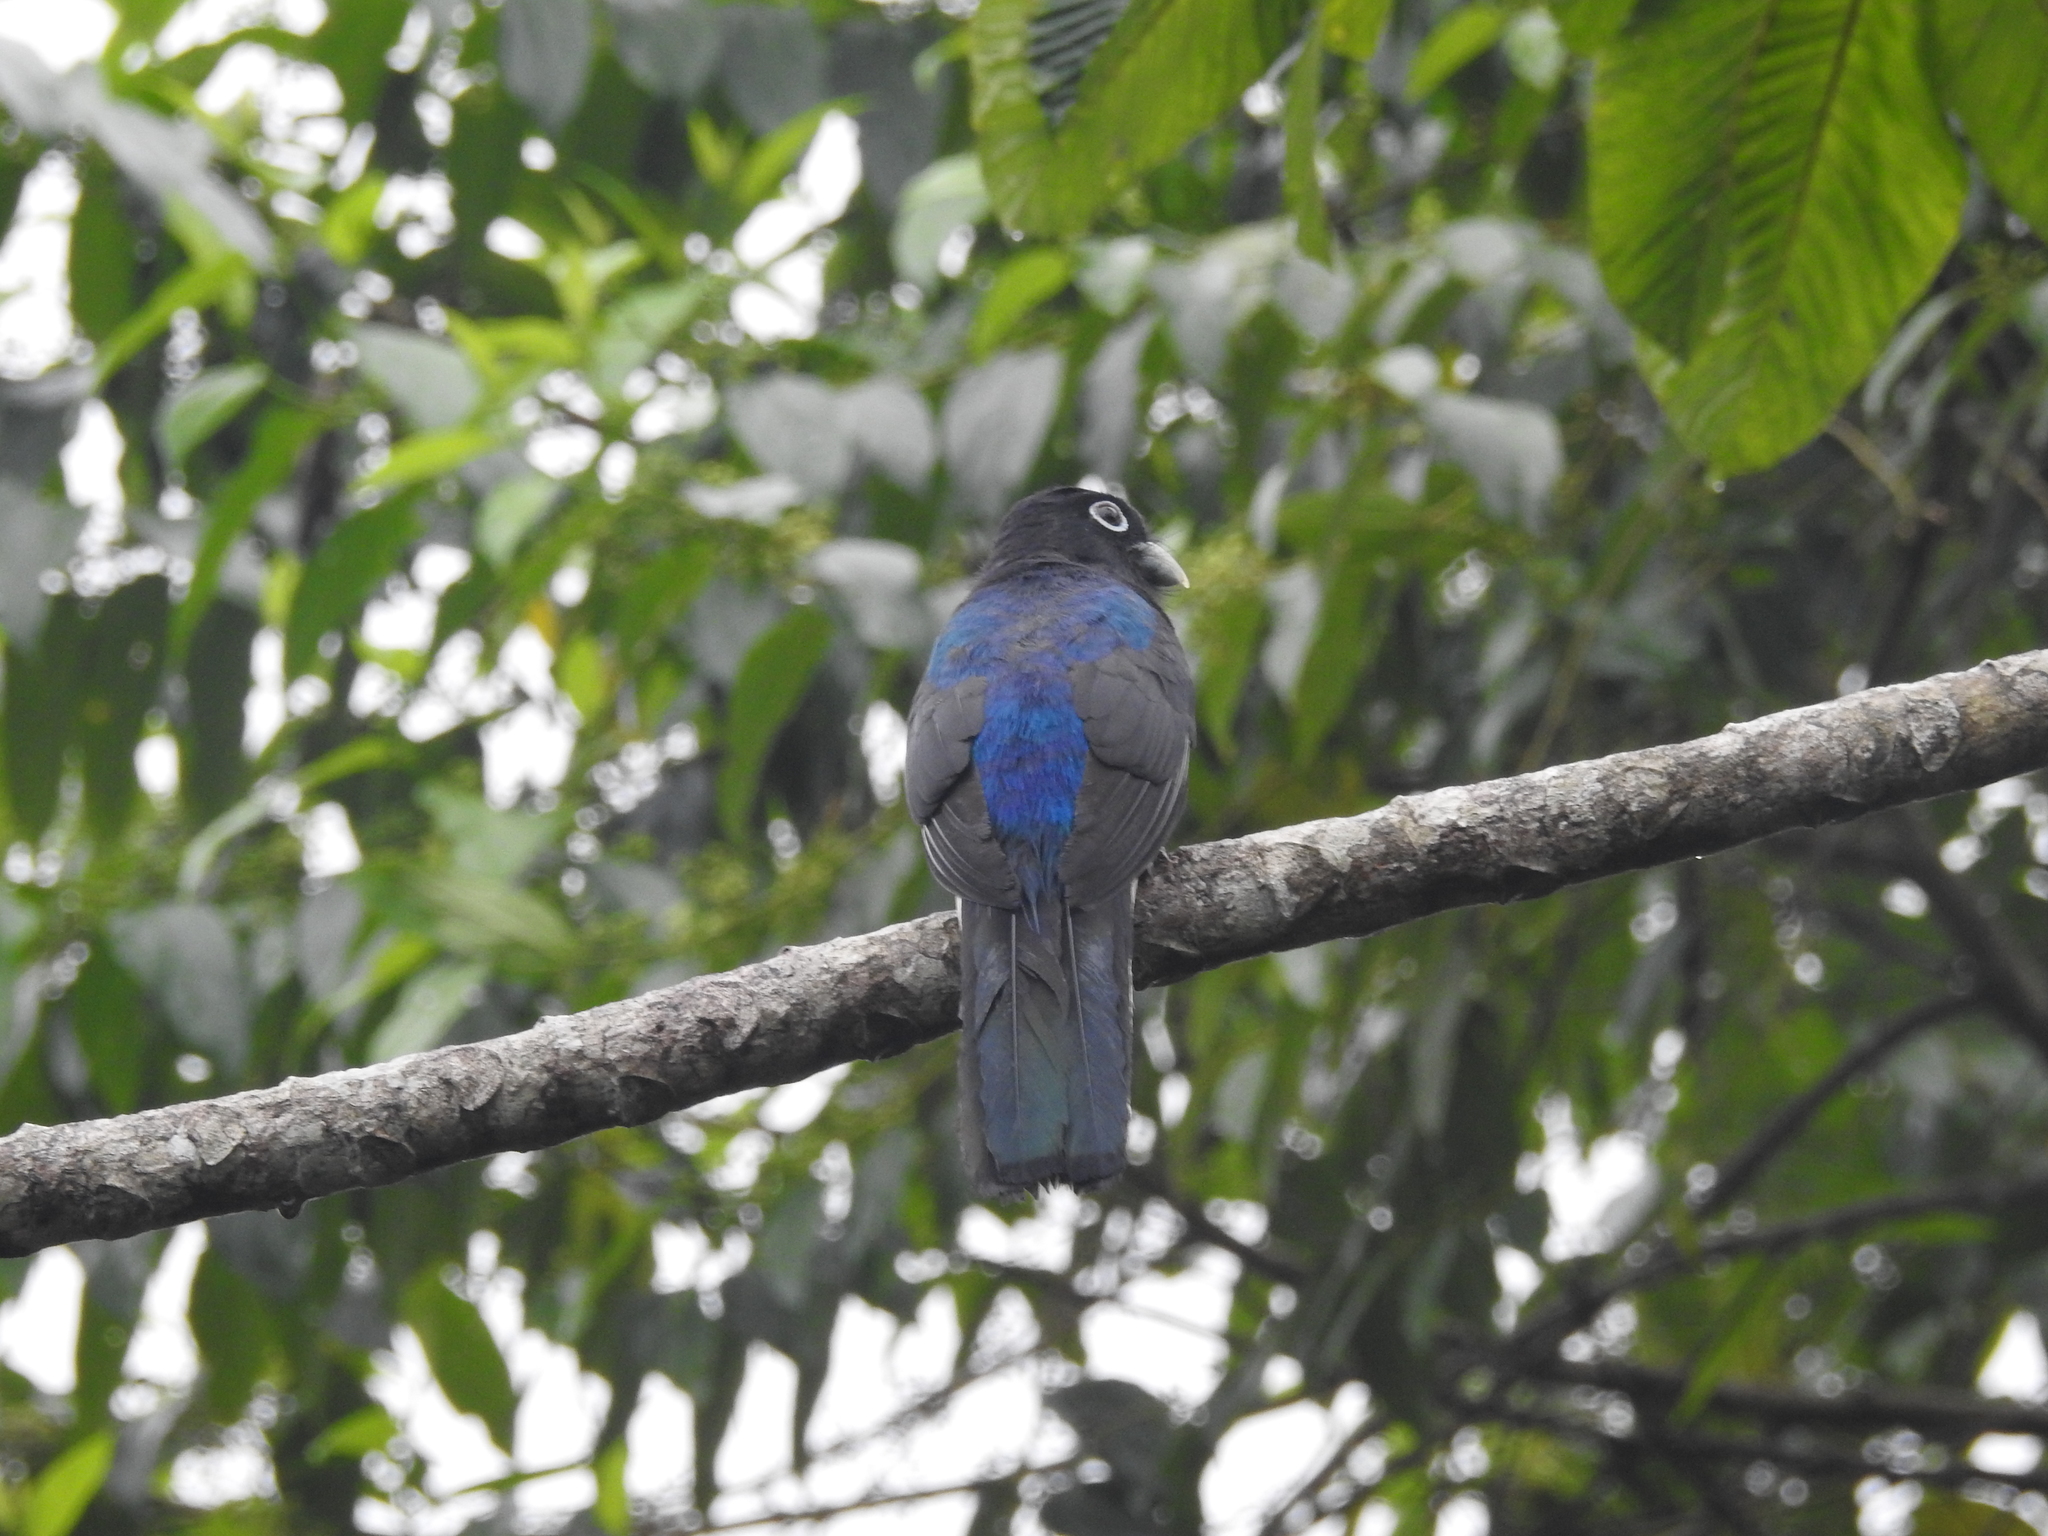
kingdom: Animalia
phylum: Chordata
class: Aves
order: Trogoniformes
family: Trogonidae
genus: Trogon
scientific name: Trogon chionurus
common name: White-tailed trogon
